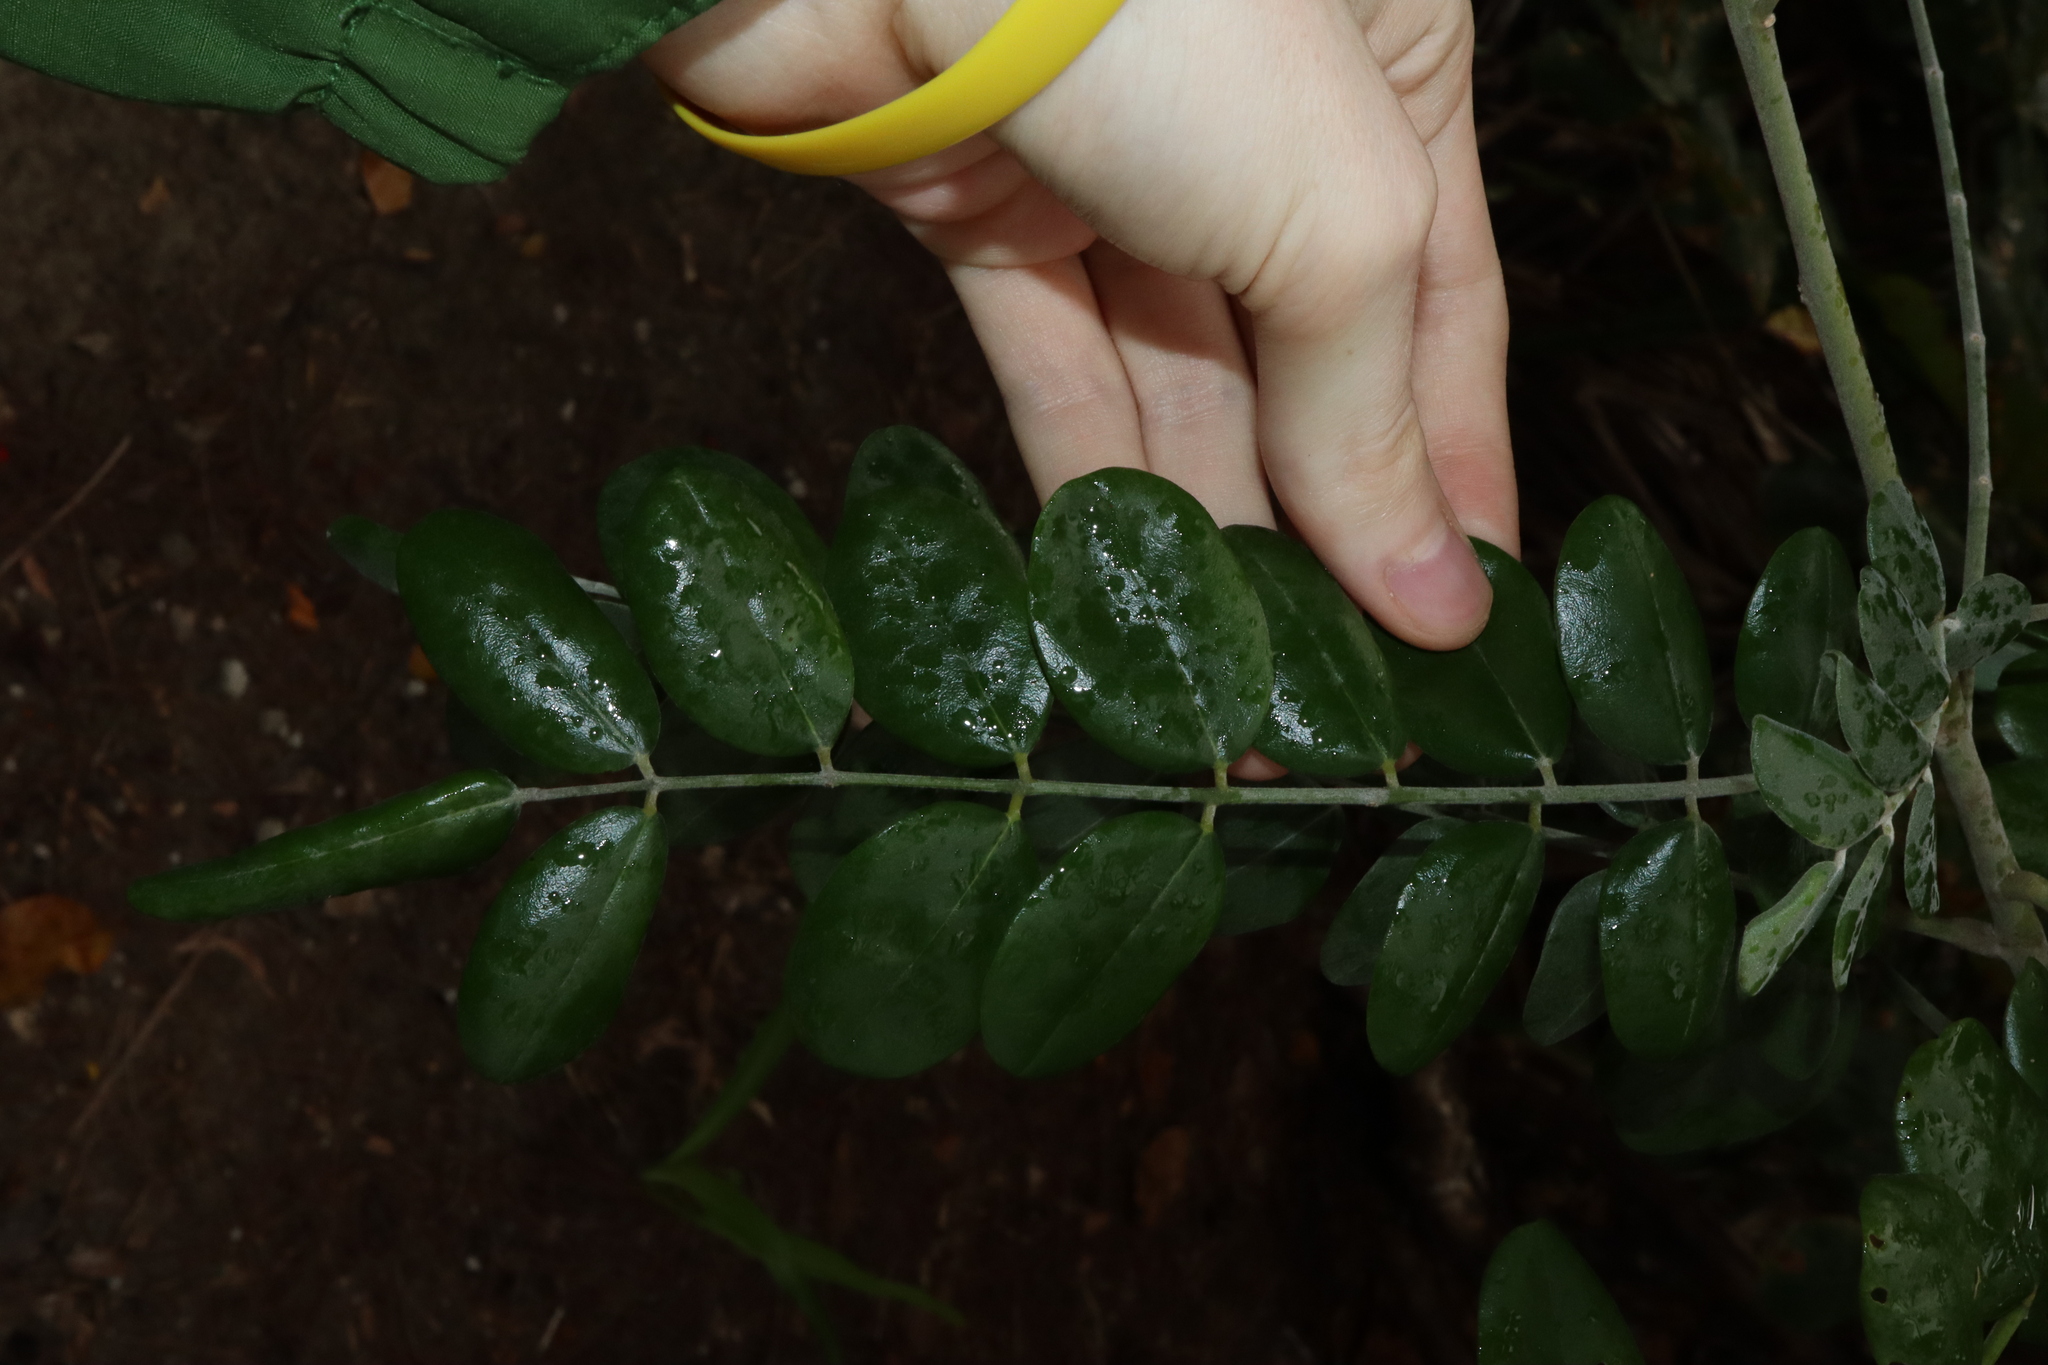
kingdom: Plantae
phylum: Tracheophyta
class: Magnoliopsida
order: Fabales
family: Fabaceae
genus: Sophora
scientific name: Sophora tomentosa
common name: Yellow necklacepod
